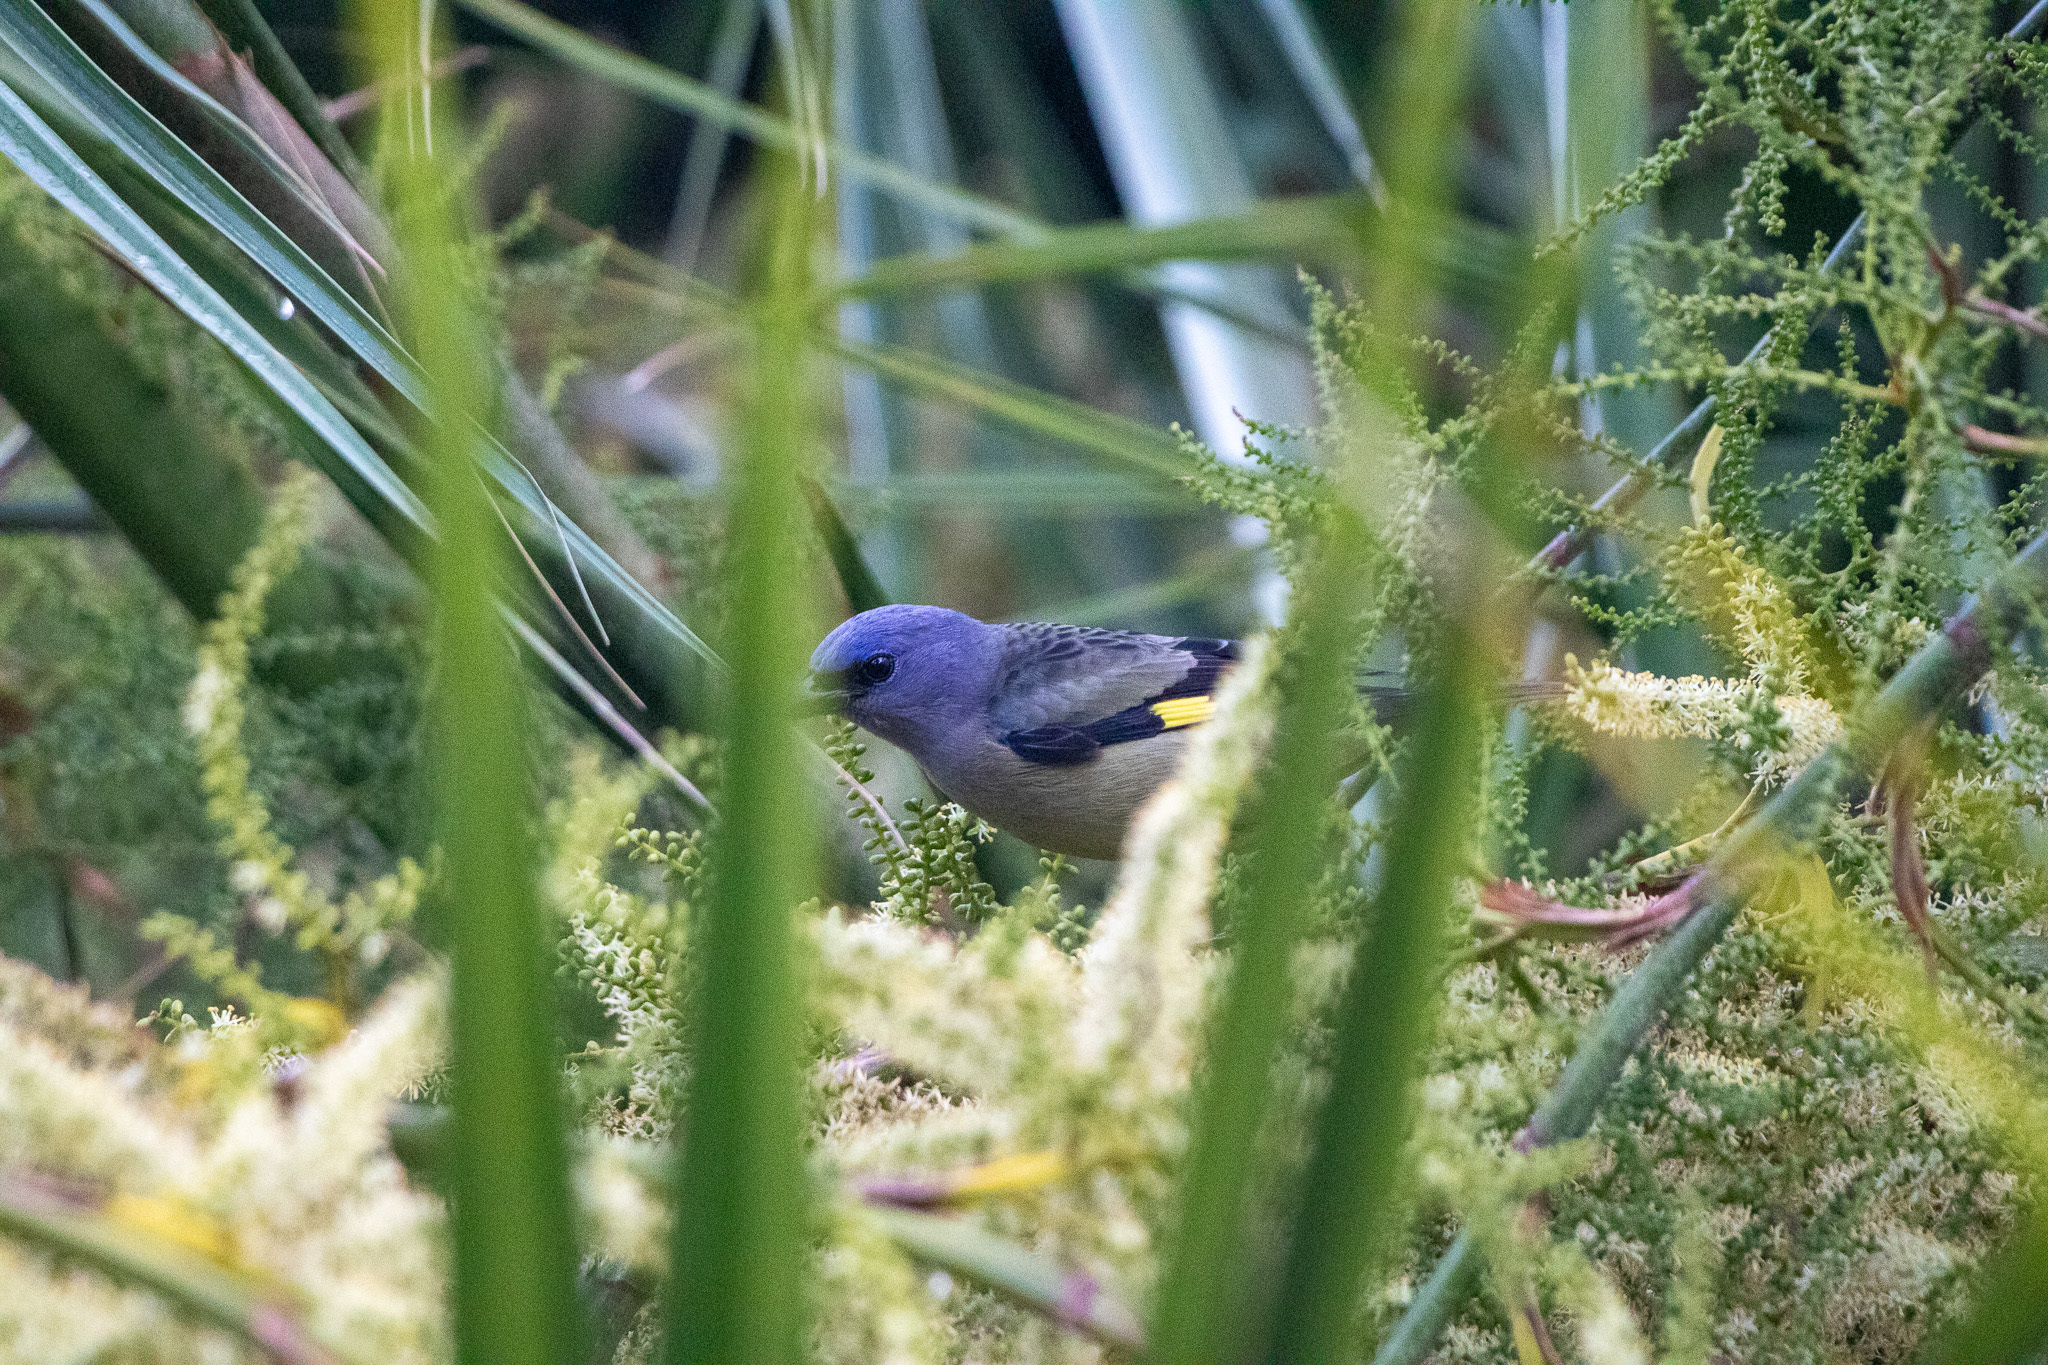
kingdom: Animalia
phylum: Chordata
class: Aves
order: Passeriformes
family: Thraupidae
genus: Thraupis
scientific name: Thraupis abbas
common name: Yellow-winged tanager
